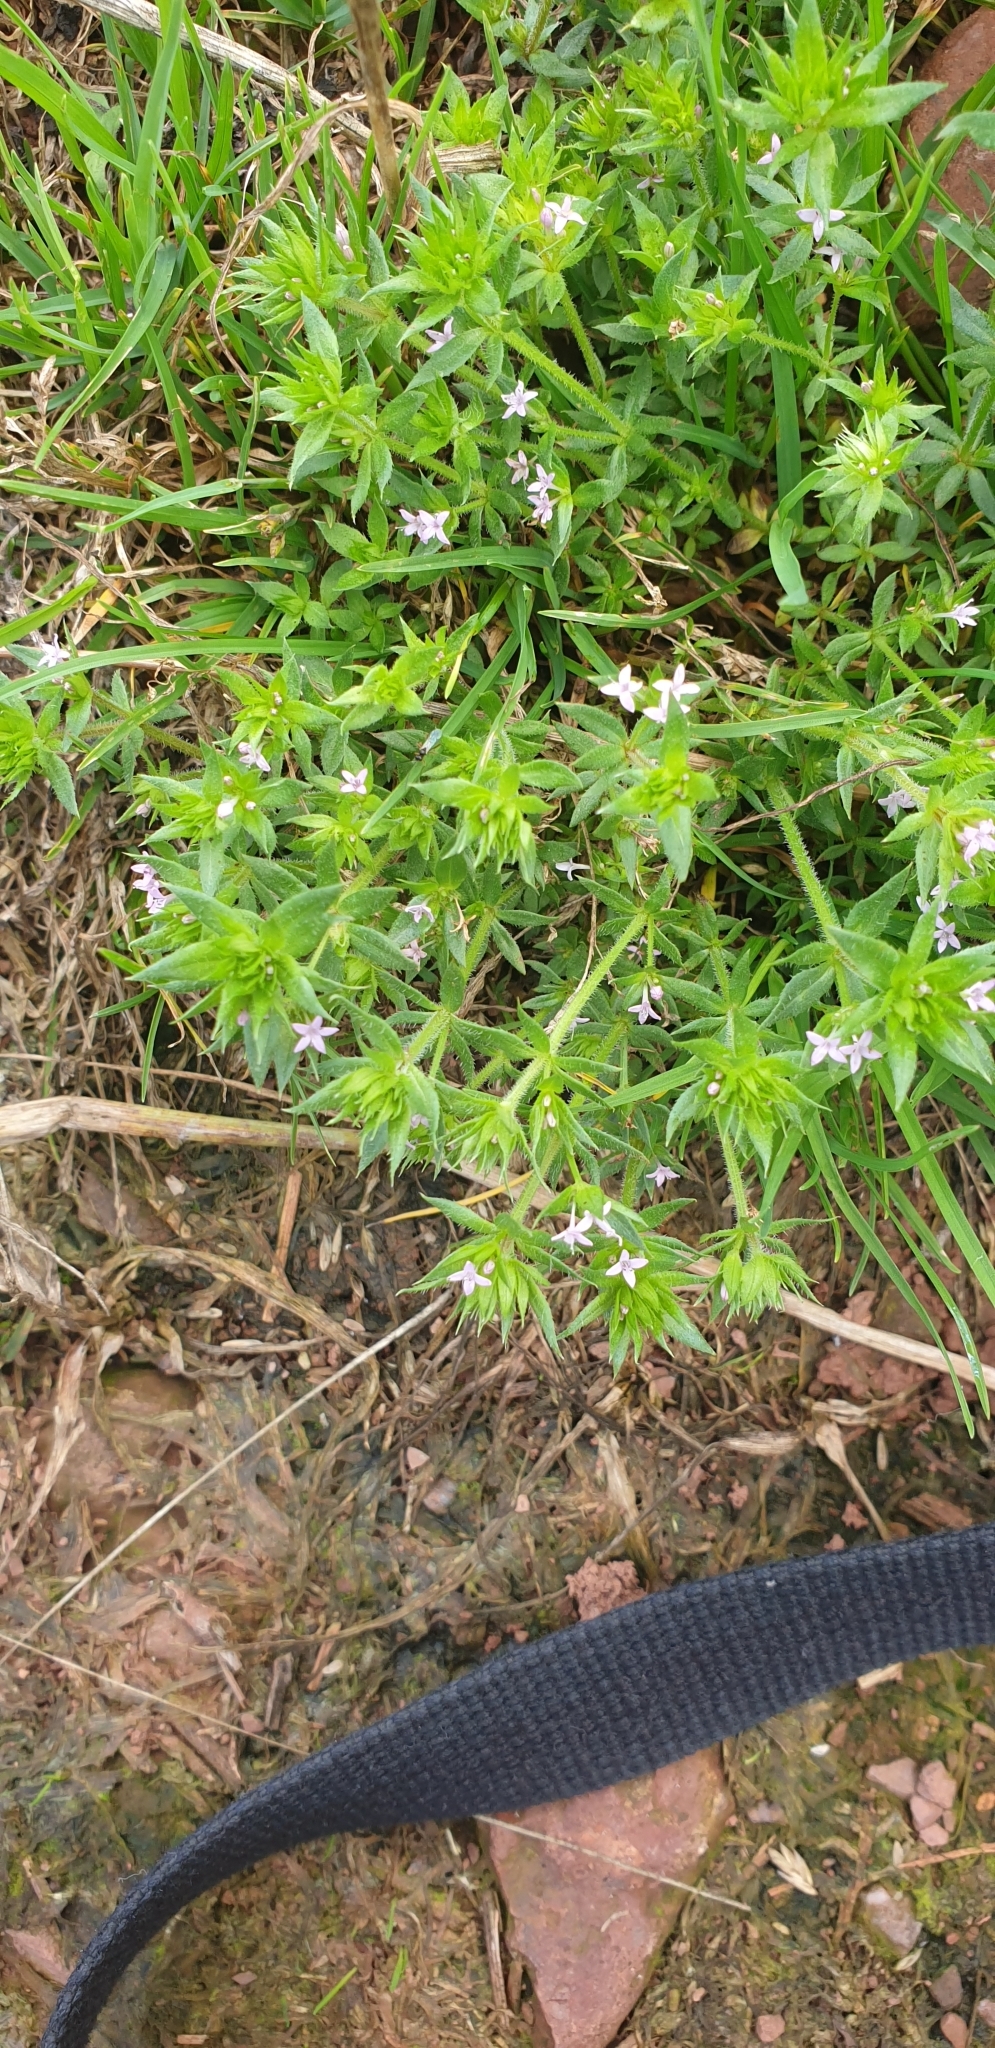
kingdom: Plantae
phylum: Tracheophyta
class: Magnoliopsida
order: Gentianales
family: Rubiaceae
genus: Sherardia
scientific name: Sherardia arvensis
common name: Field madder
